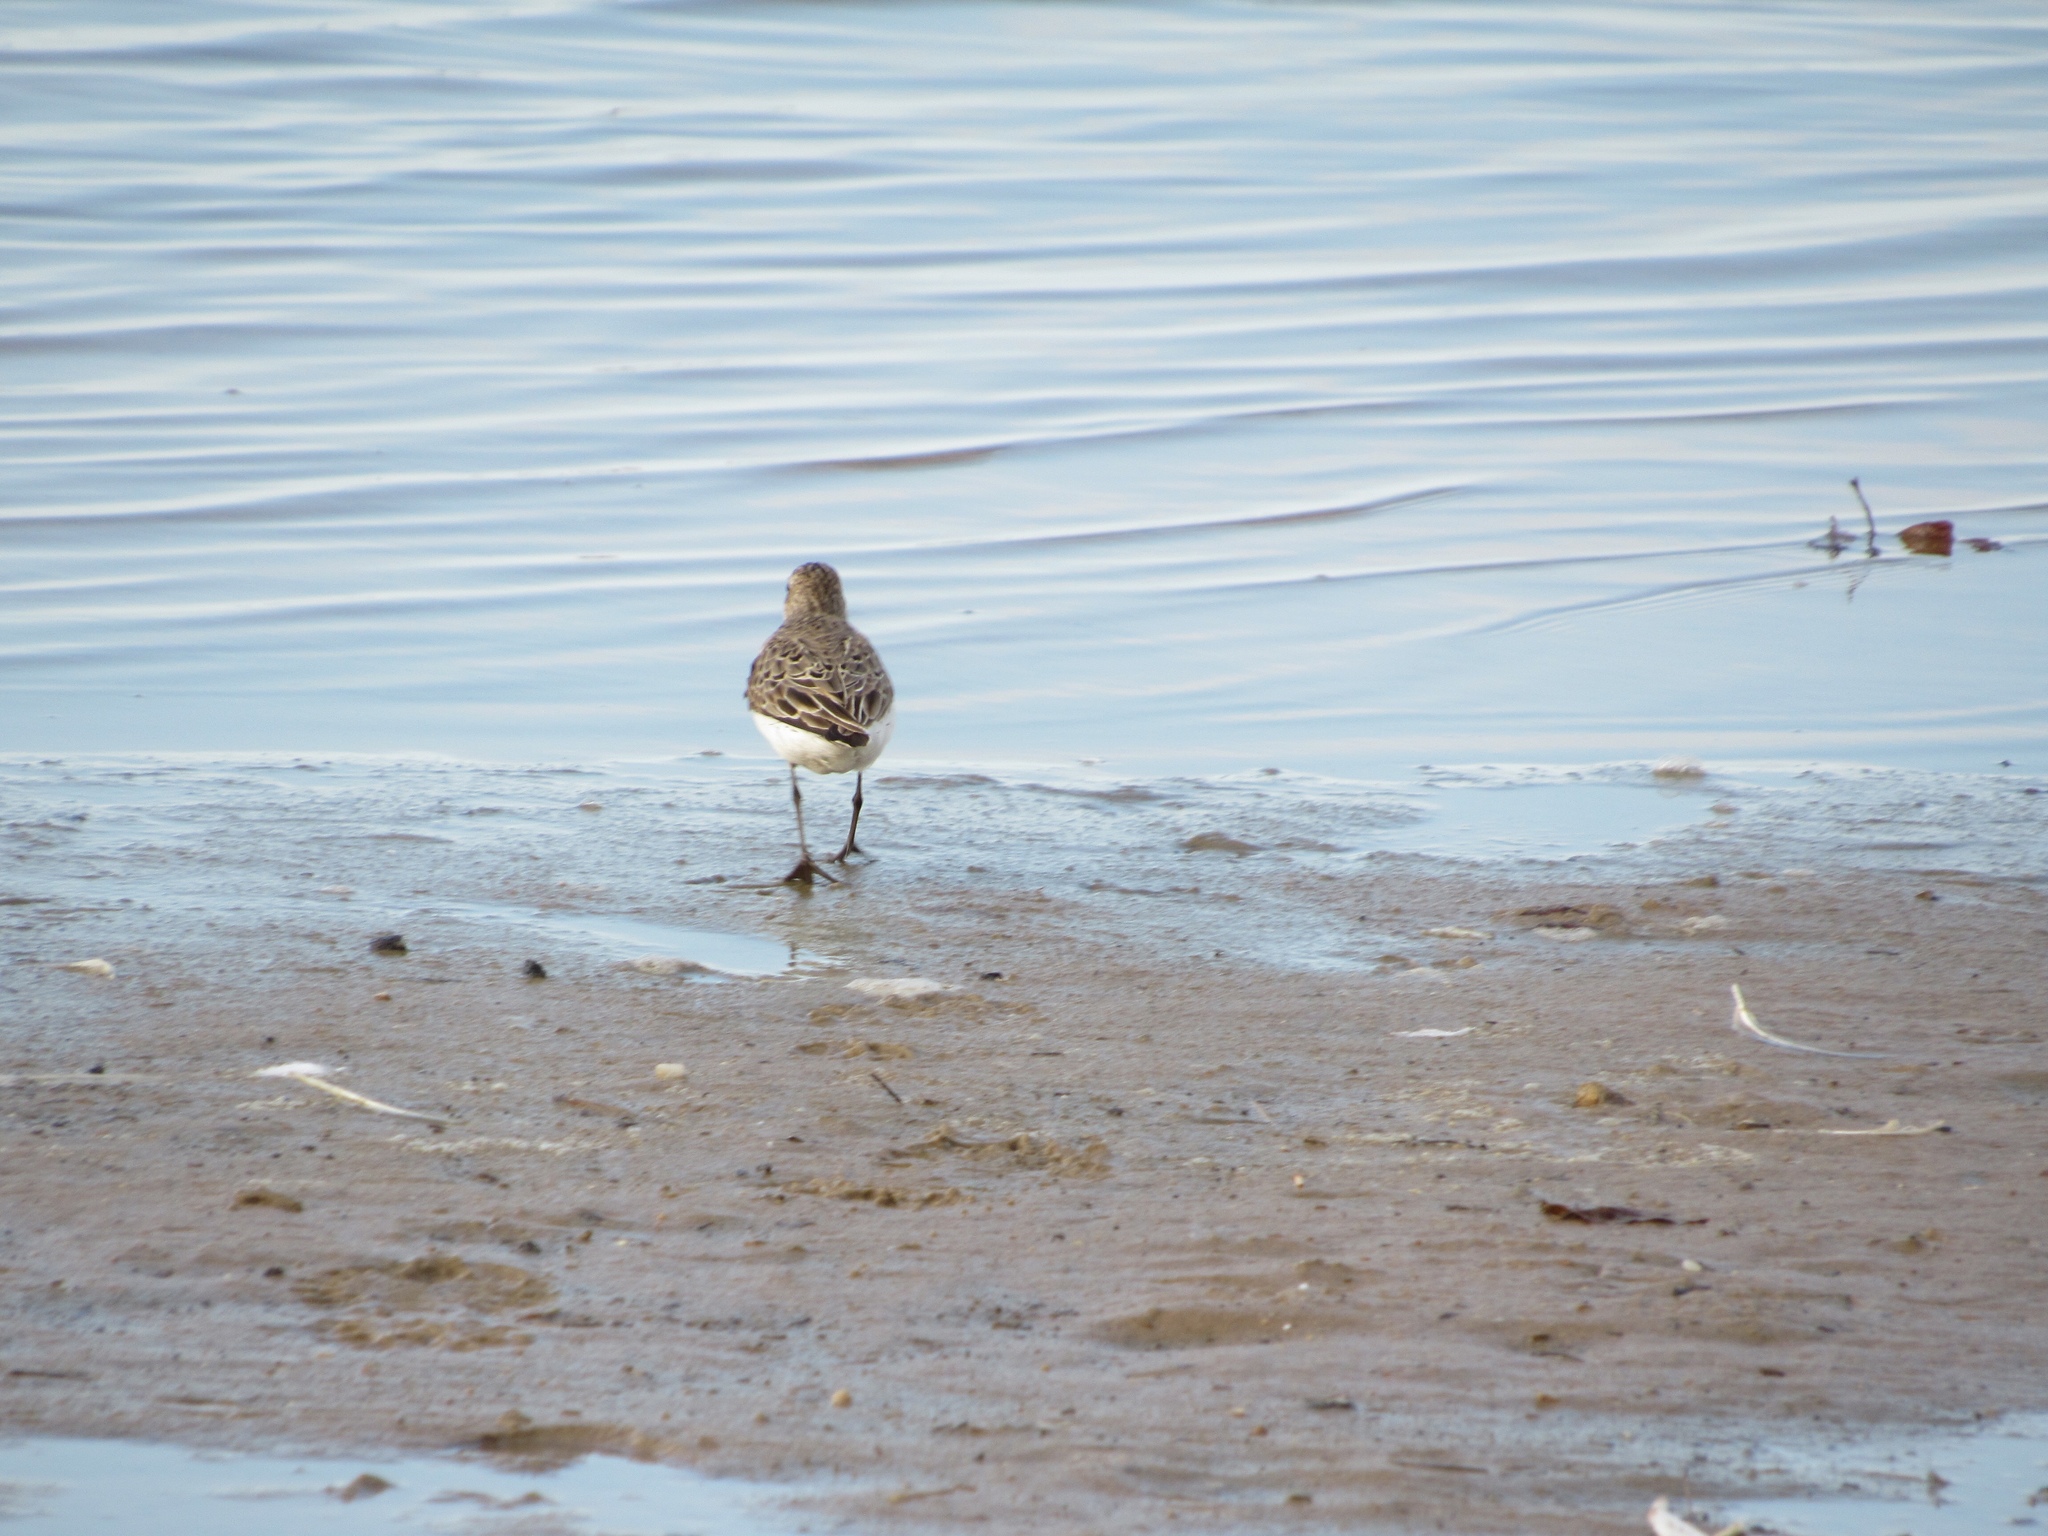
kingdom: Animalia
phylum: Chordata
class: Aves
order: Charadriiformes
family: Scolopacidae
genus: Calidris
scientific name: Calidris pusilla
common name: Semipalmated sandpiper
